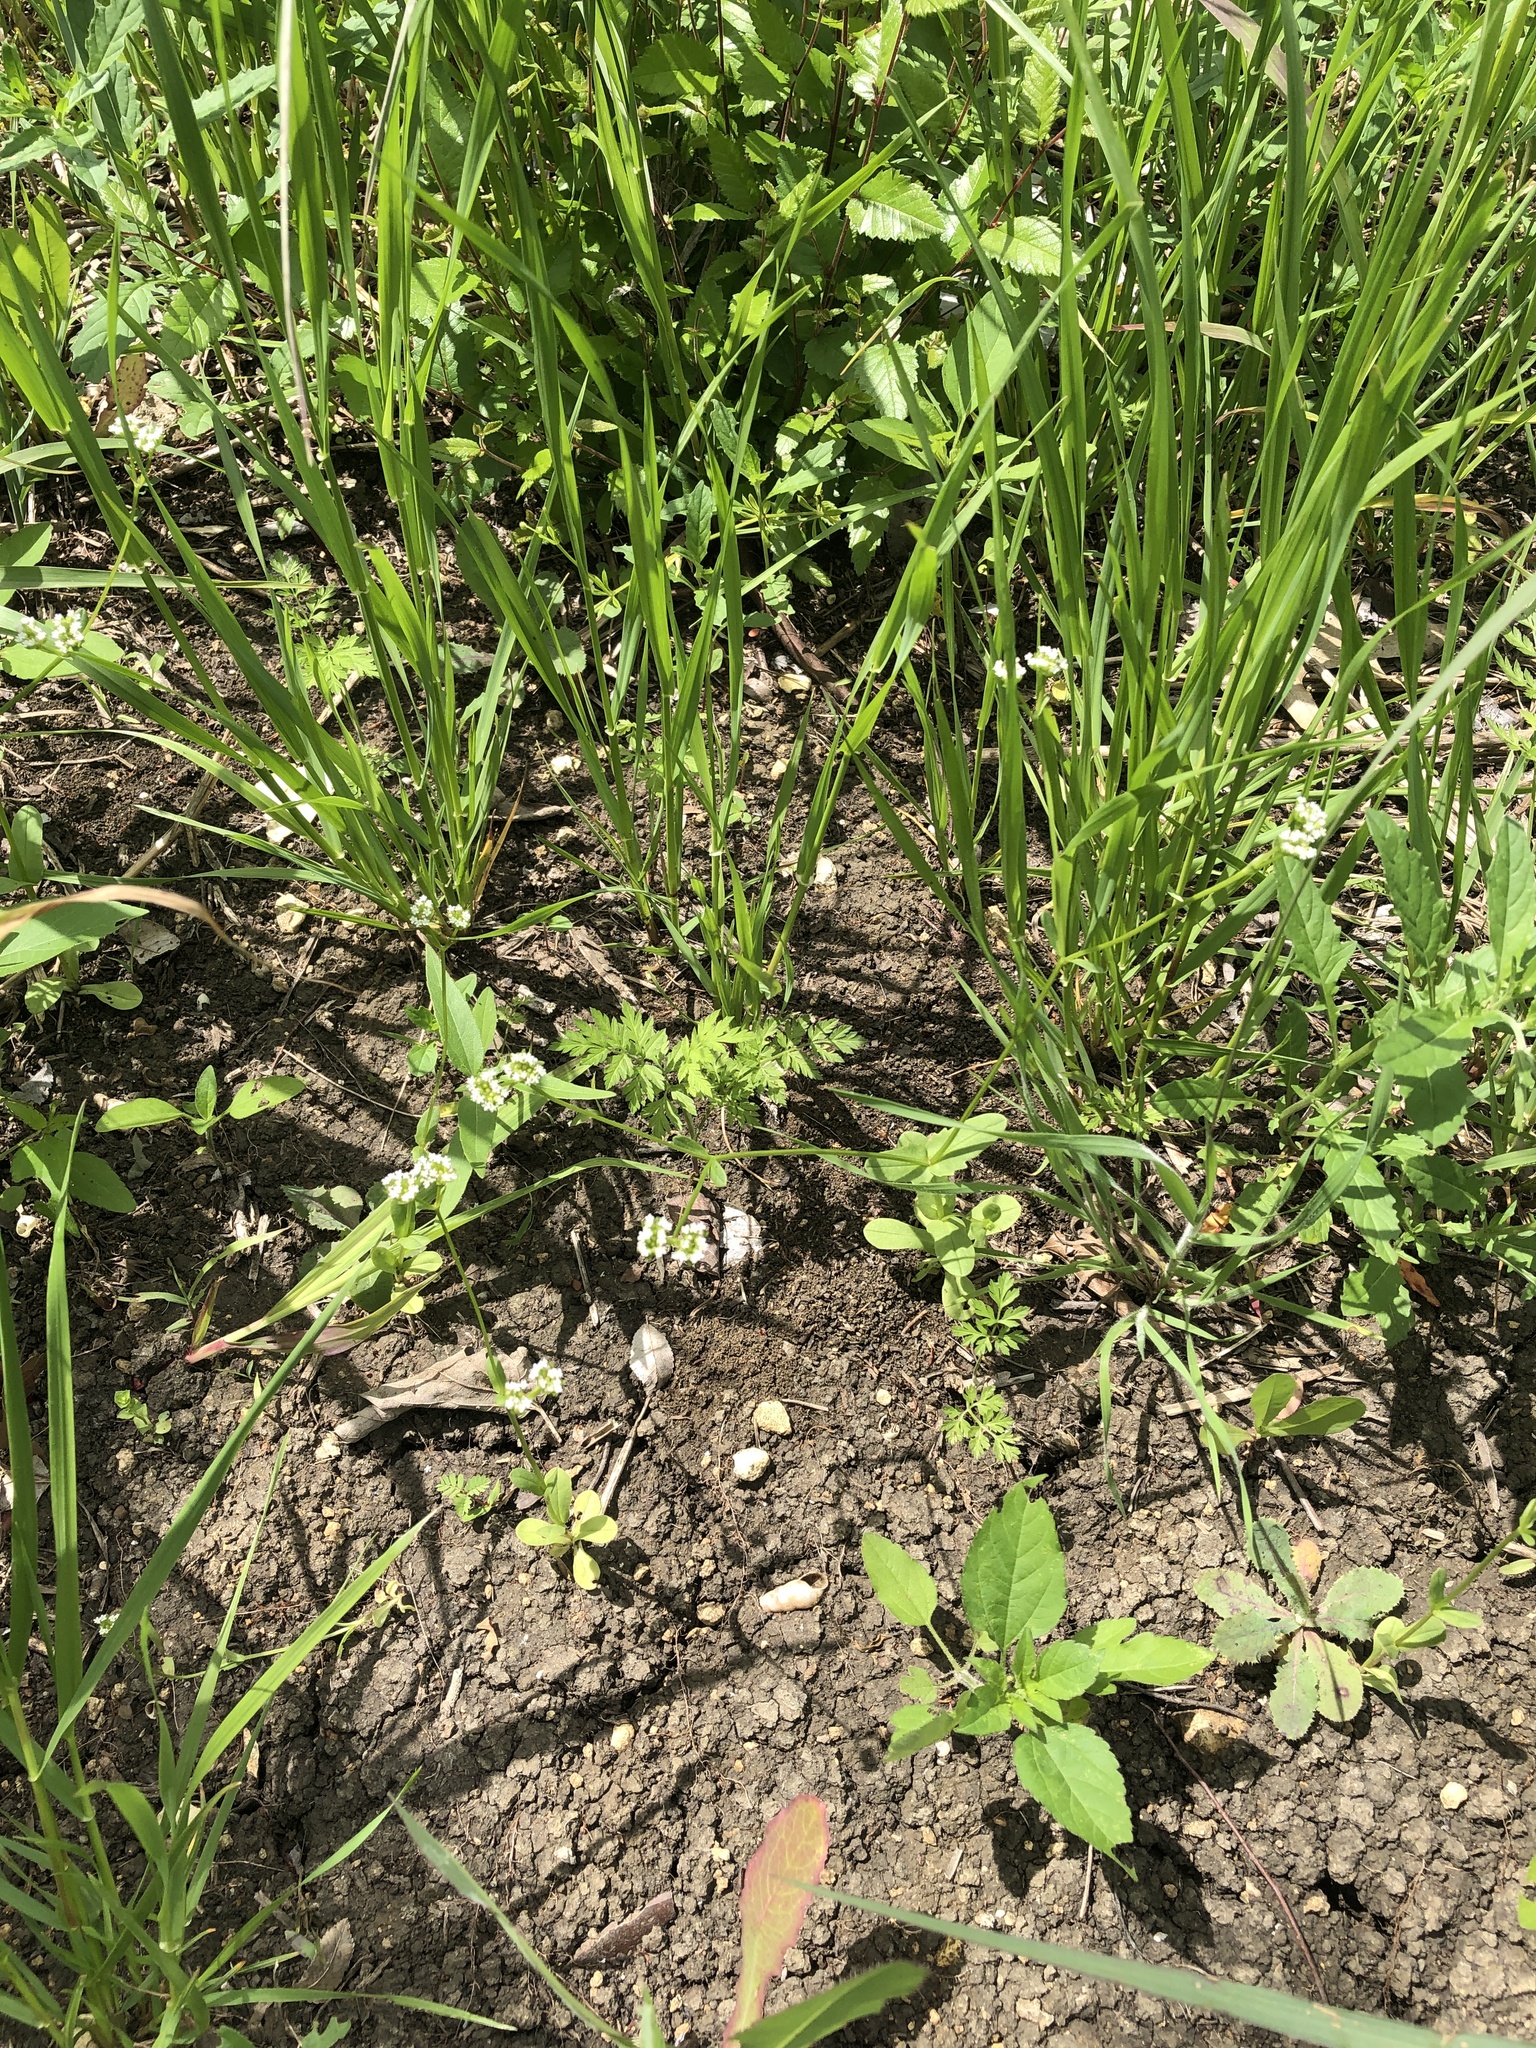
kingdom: Plantae
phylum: Tracheophyta
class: Magnoliopsida
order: Dipsacales
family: Caprifoliaceae
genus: Valerianella
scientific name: Valerianella radiata
